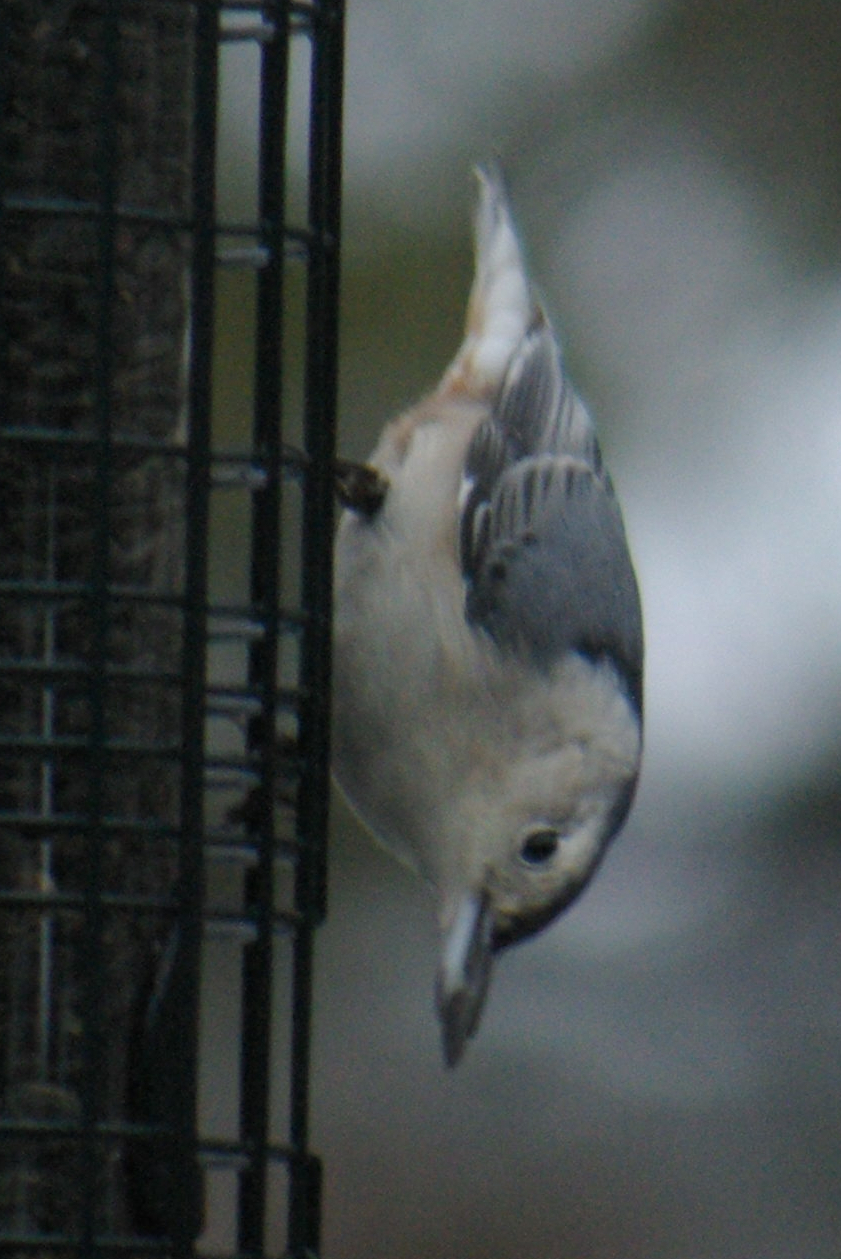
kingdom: Animalia
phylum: Chordata
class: Aves
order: Passeriformes
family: Sittidae
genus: Sitta
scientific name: Sitta carolinensis
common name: White-breasted nuthatch
